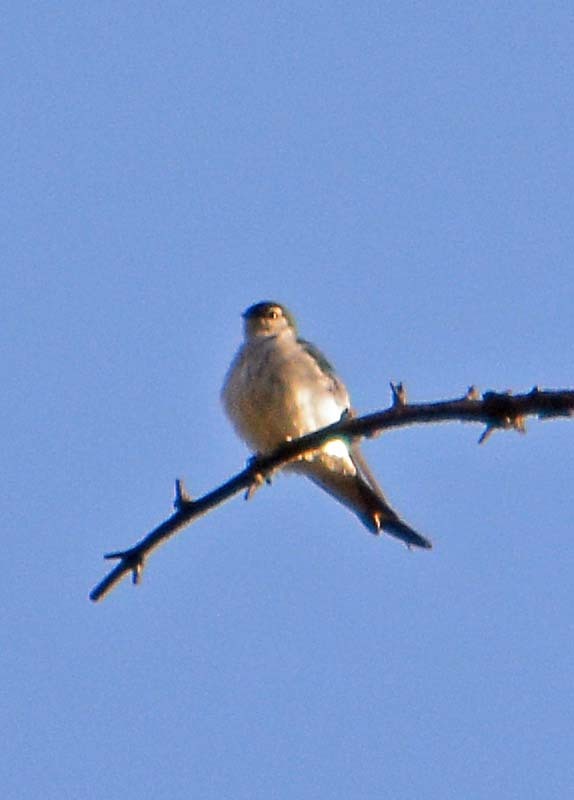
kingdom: Animalia
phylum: Chordata
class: Aves
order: Passeriformes
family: Hirundinidae
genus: Tachycineta
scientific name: Tachycineta thalassina
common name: Violet-green swallow
